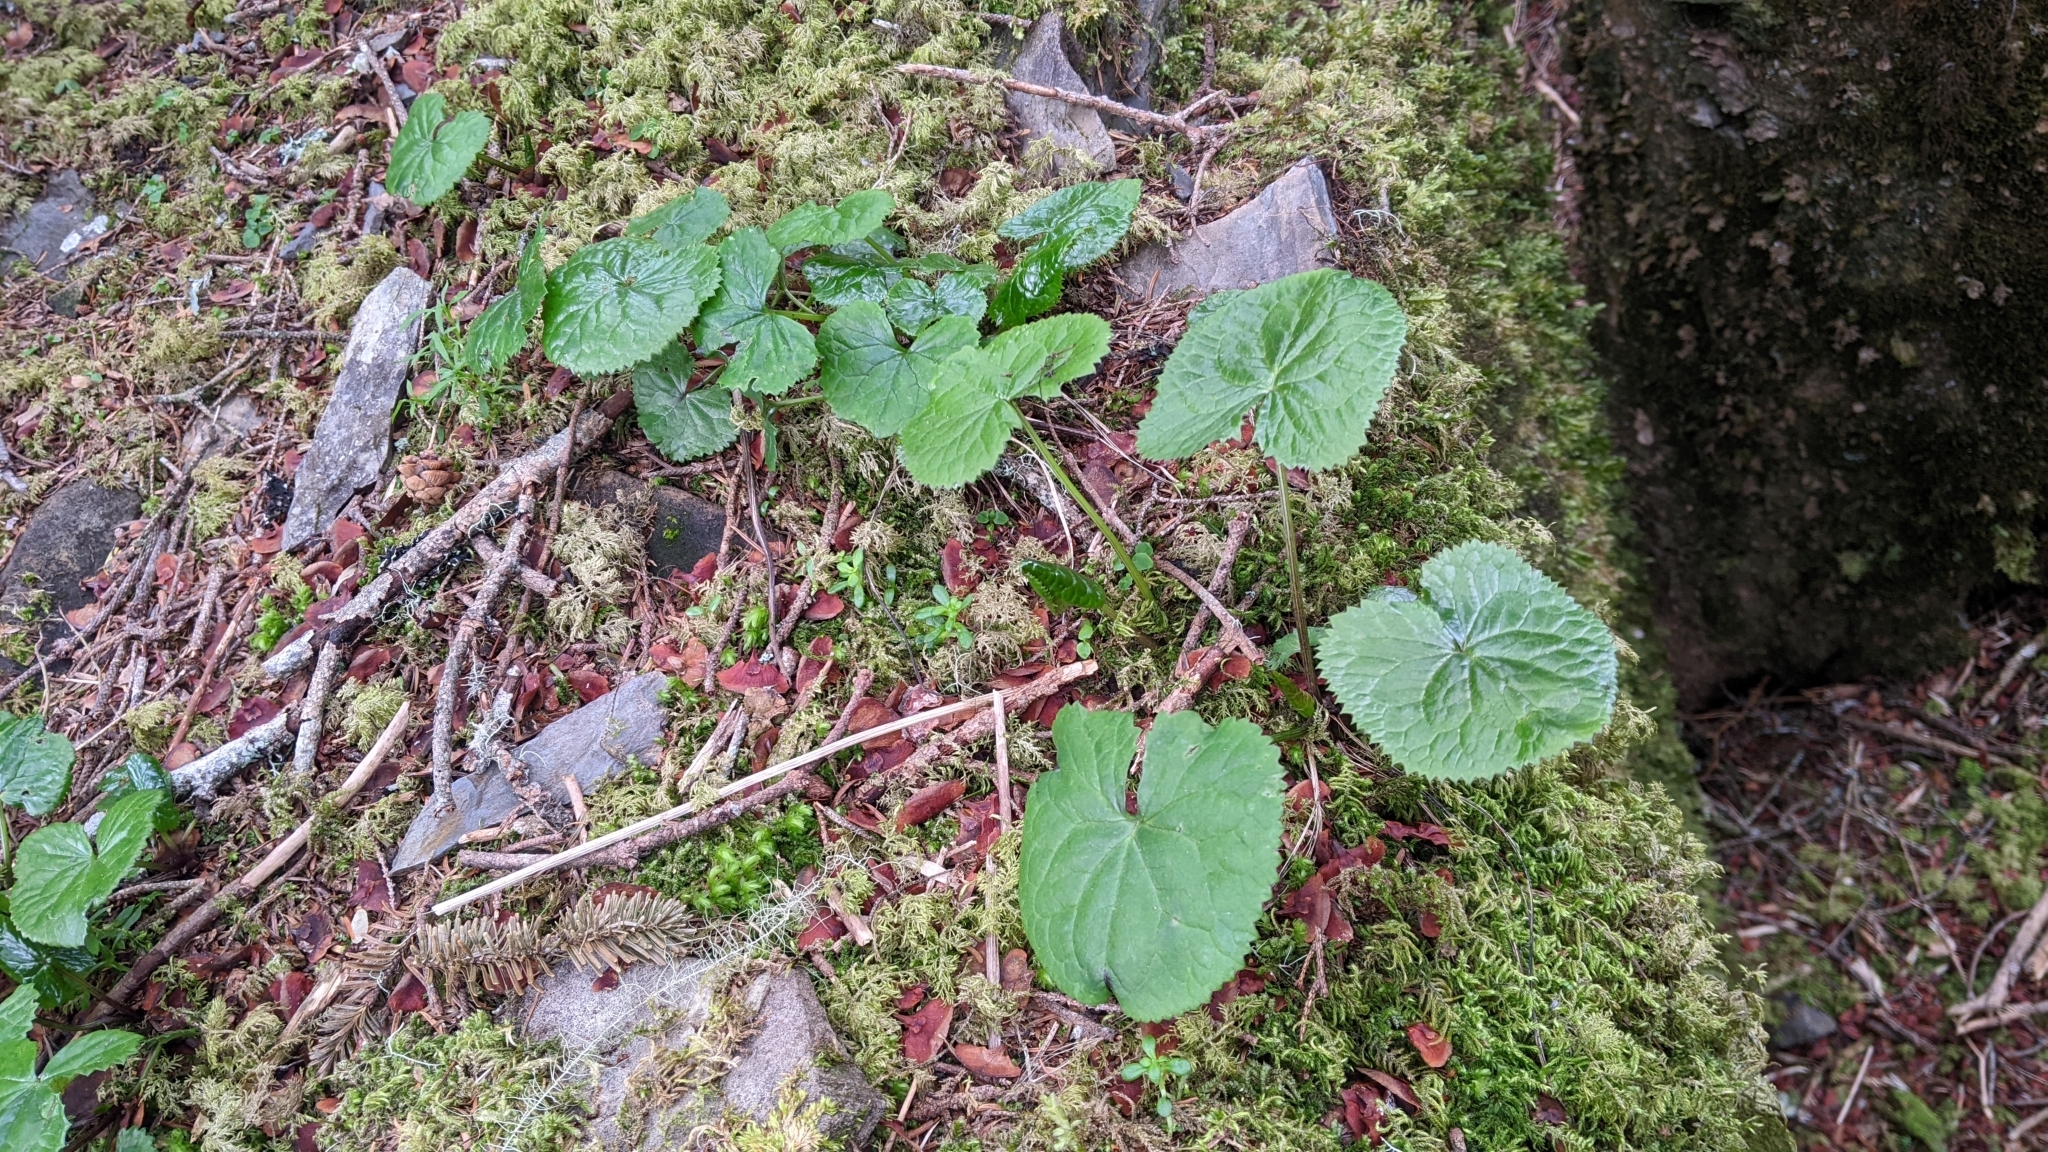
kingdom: Plantae
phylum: Tracheophyta
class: Magnoliopsida
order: Asterales
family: Asteraceae
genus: Ligularia
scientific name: Ligularia kojimae
